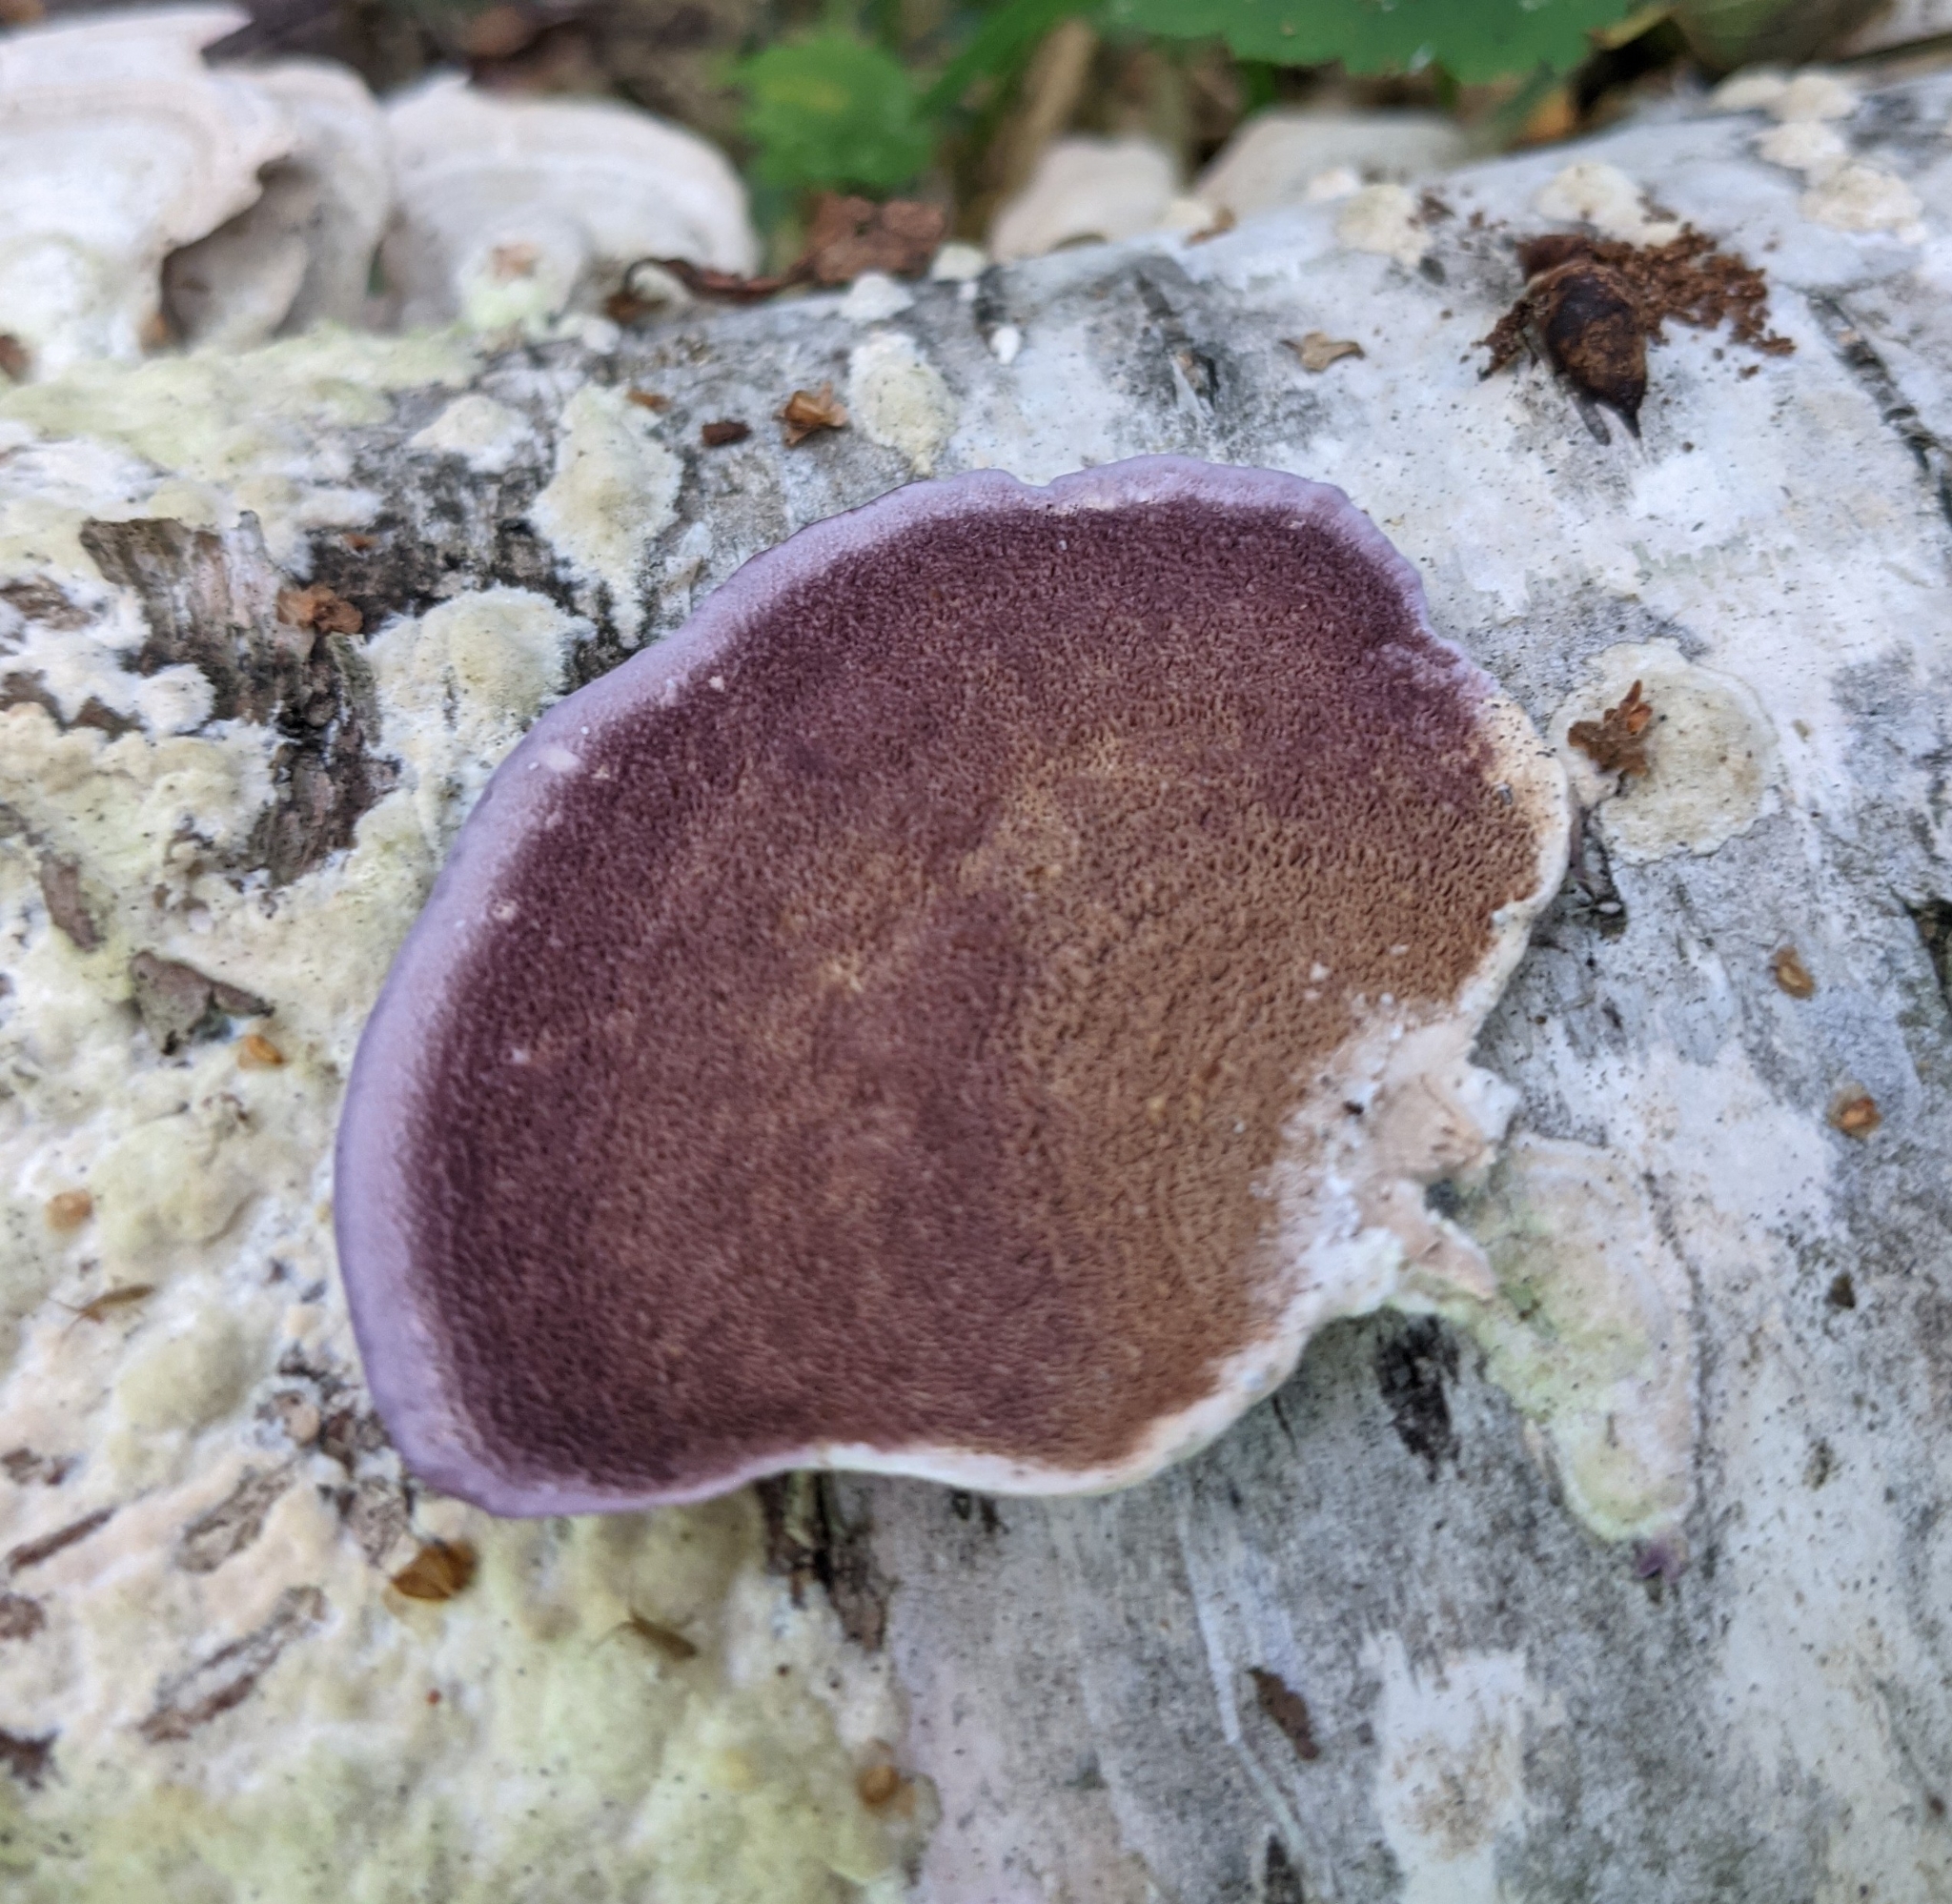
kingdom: Fungi
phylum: Basidiomycota
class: Agaricomycetes
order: Hymenochaetales
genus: Trichaptum
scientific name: Trichaptum biforme
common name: Violet-toothed polypore
